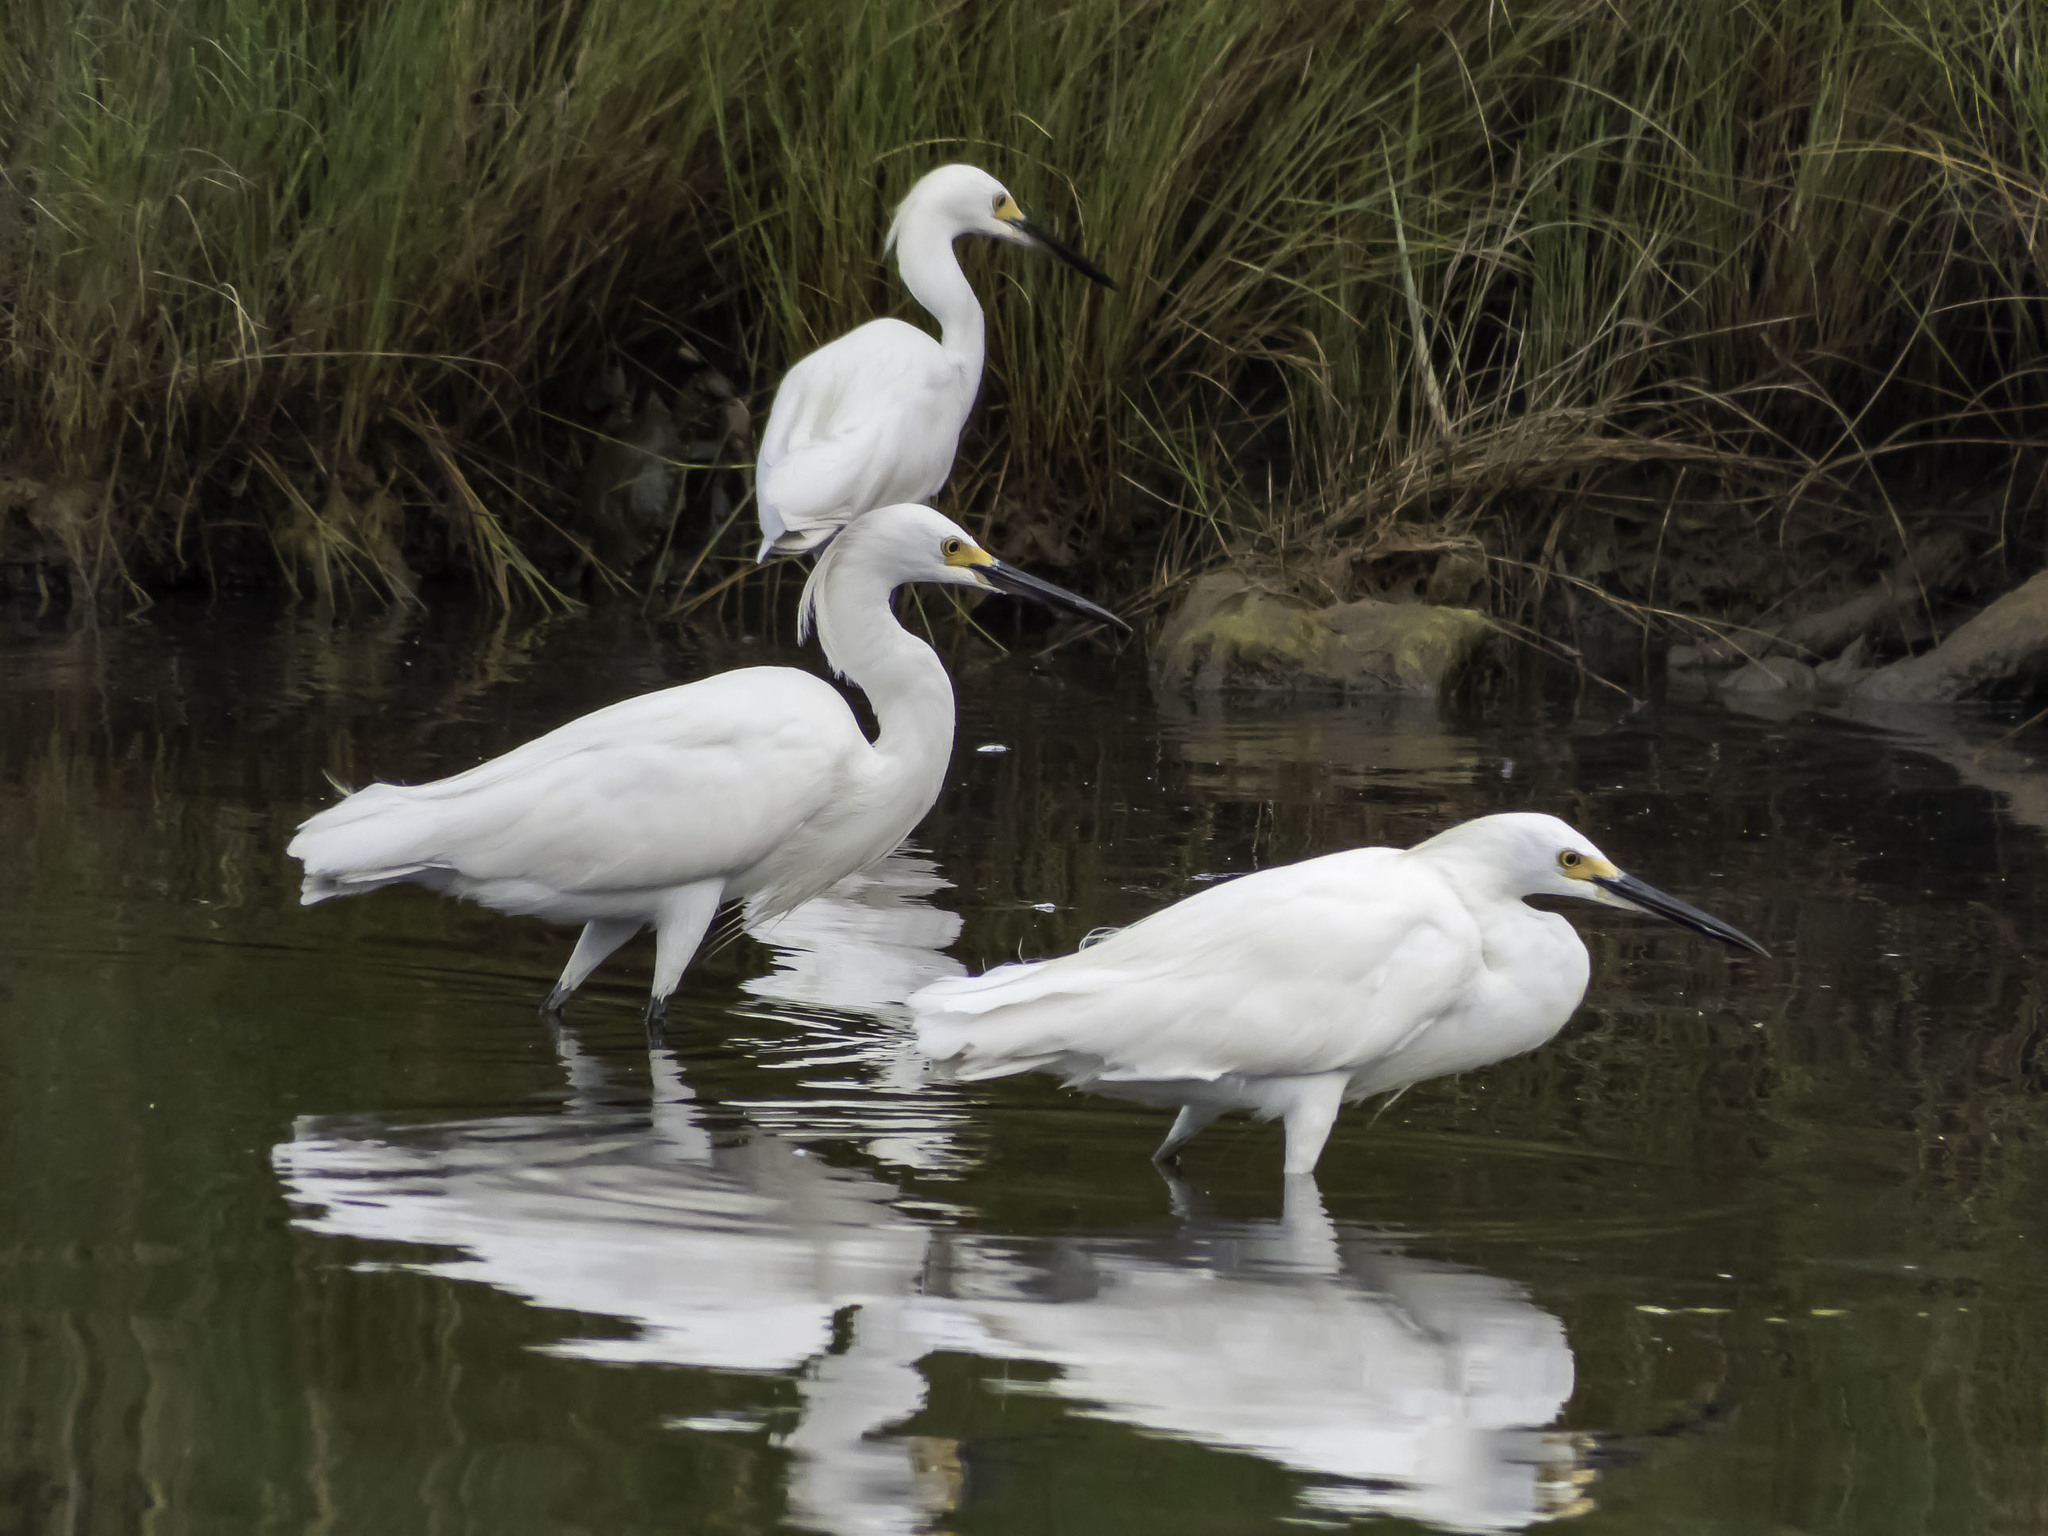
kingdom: Animalia
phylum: Chordata
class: Aves
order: Pelecaniformes
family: Ardeidae
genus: Egretta
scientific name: Egretta thula
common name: Snowy egret
